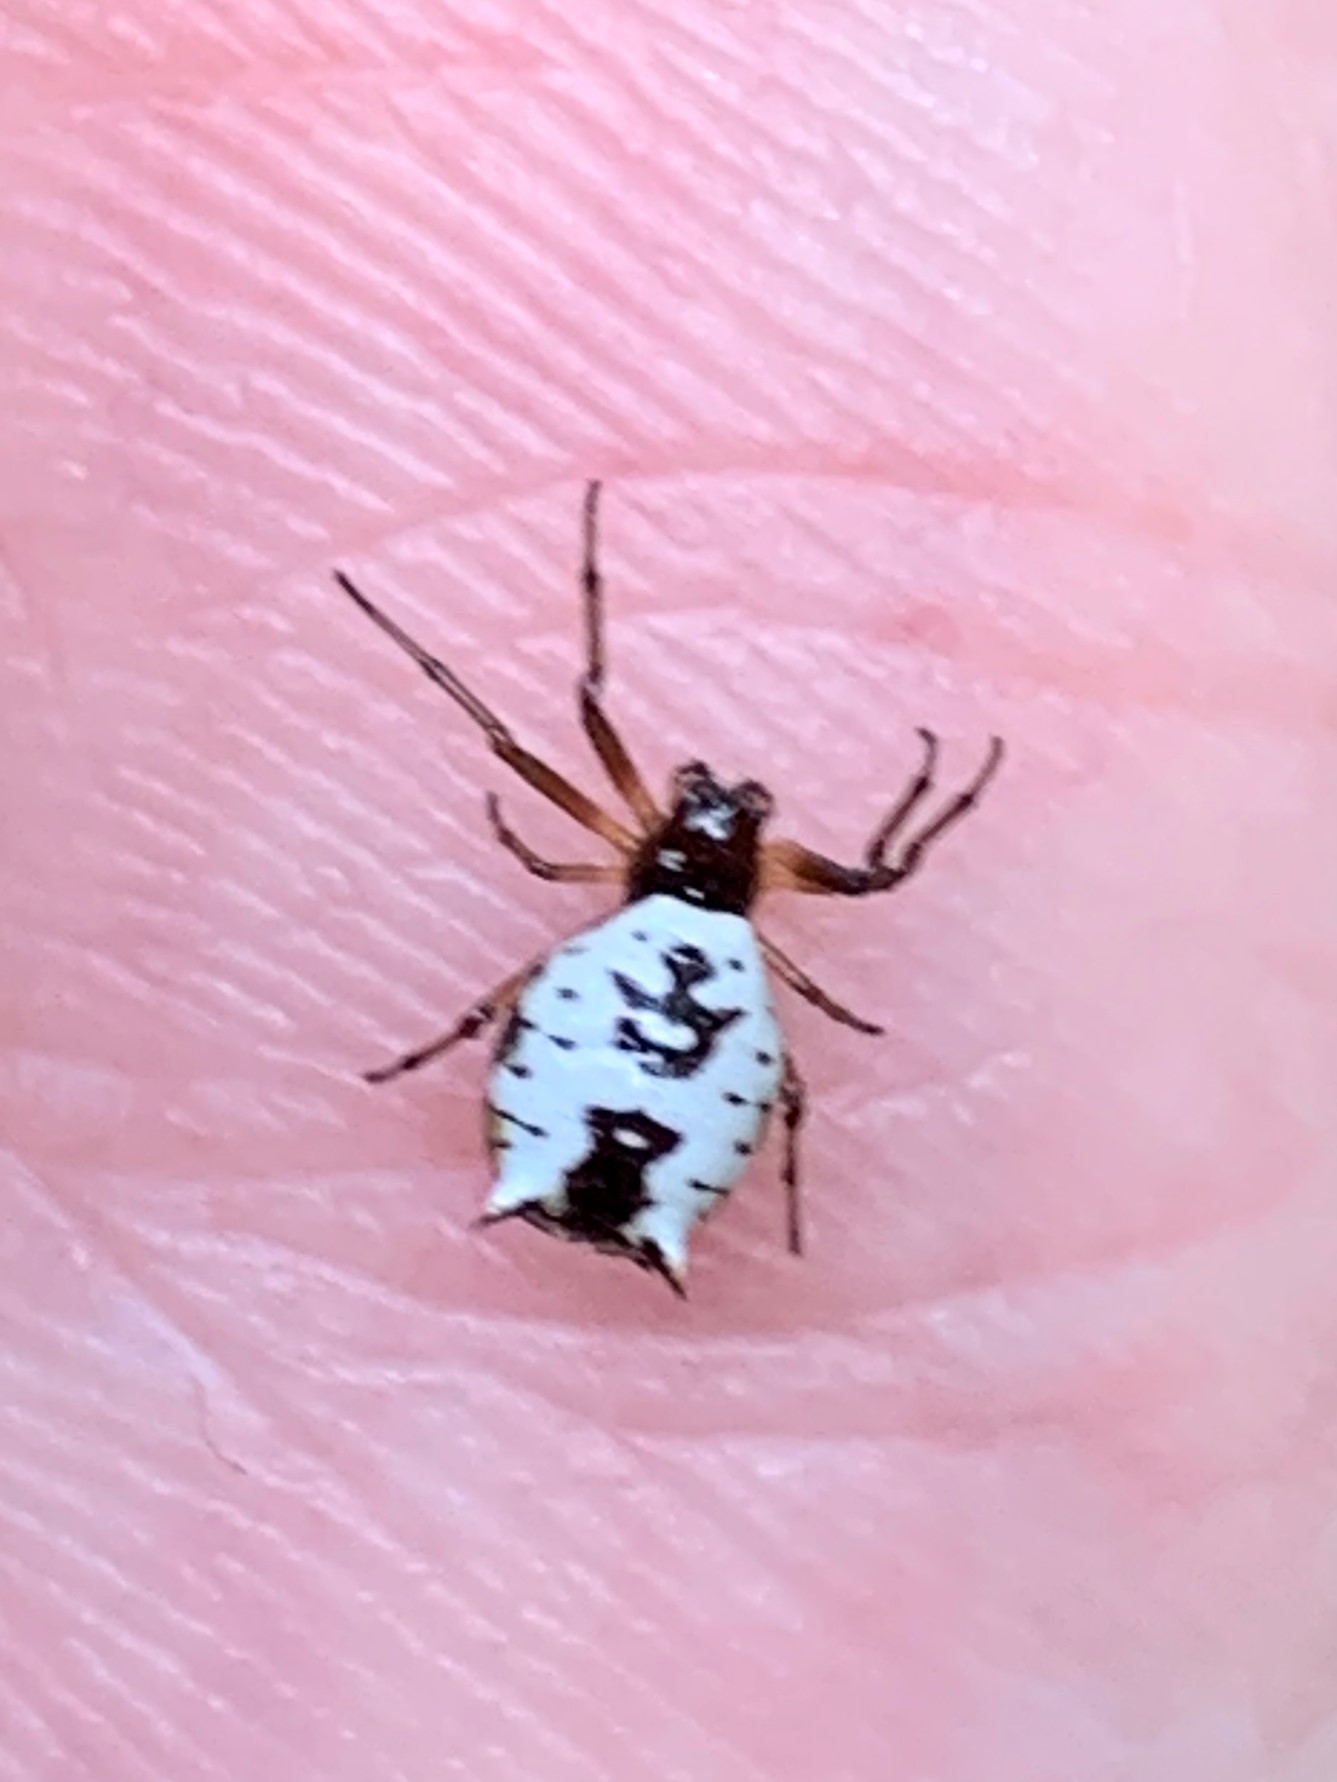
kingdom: Animalia
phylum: Arthropoda
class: Arachnida
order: Araneae
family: Araneidae
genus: Micrathena
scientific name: Micrathena mitrata
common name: Orb weavers
